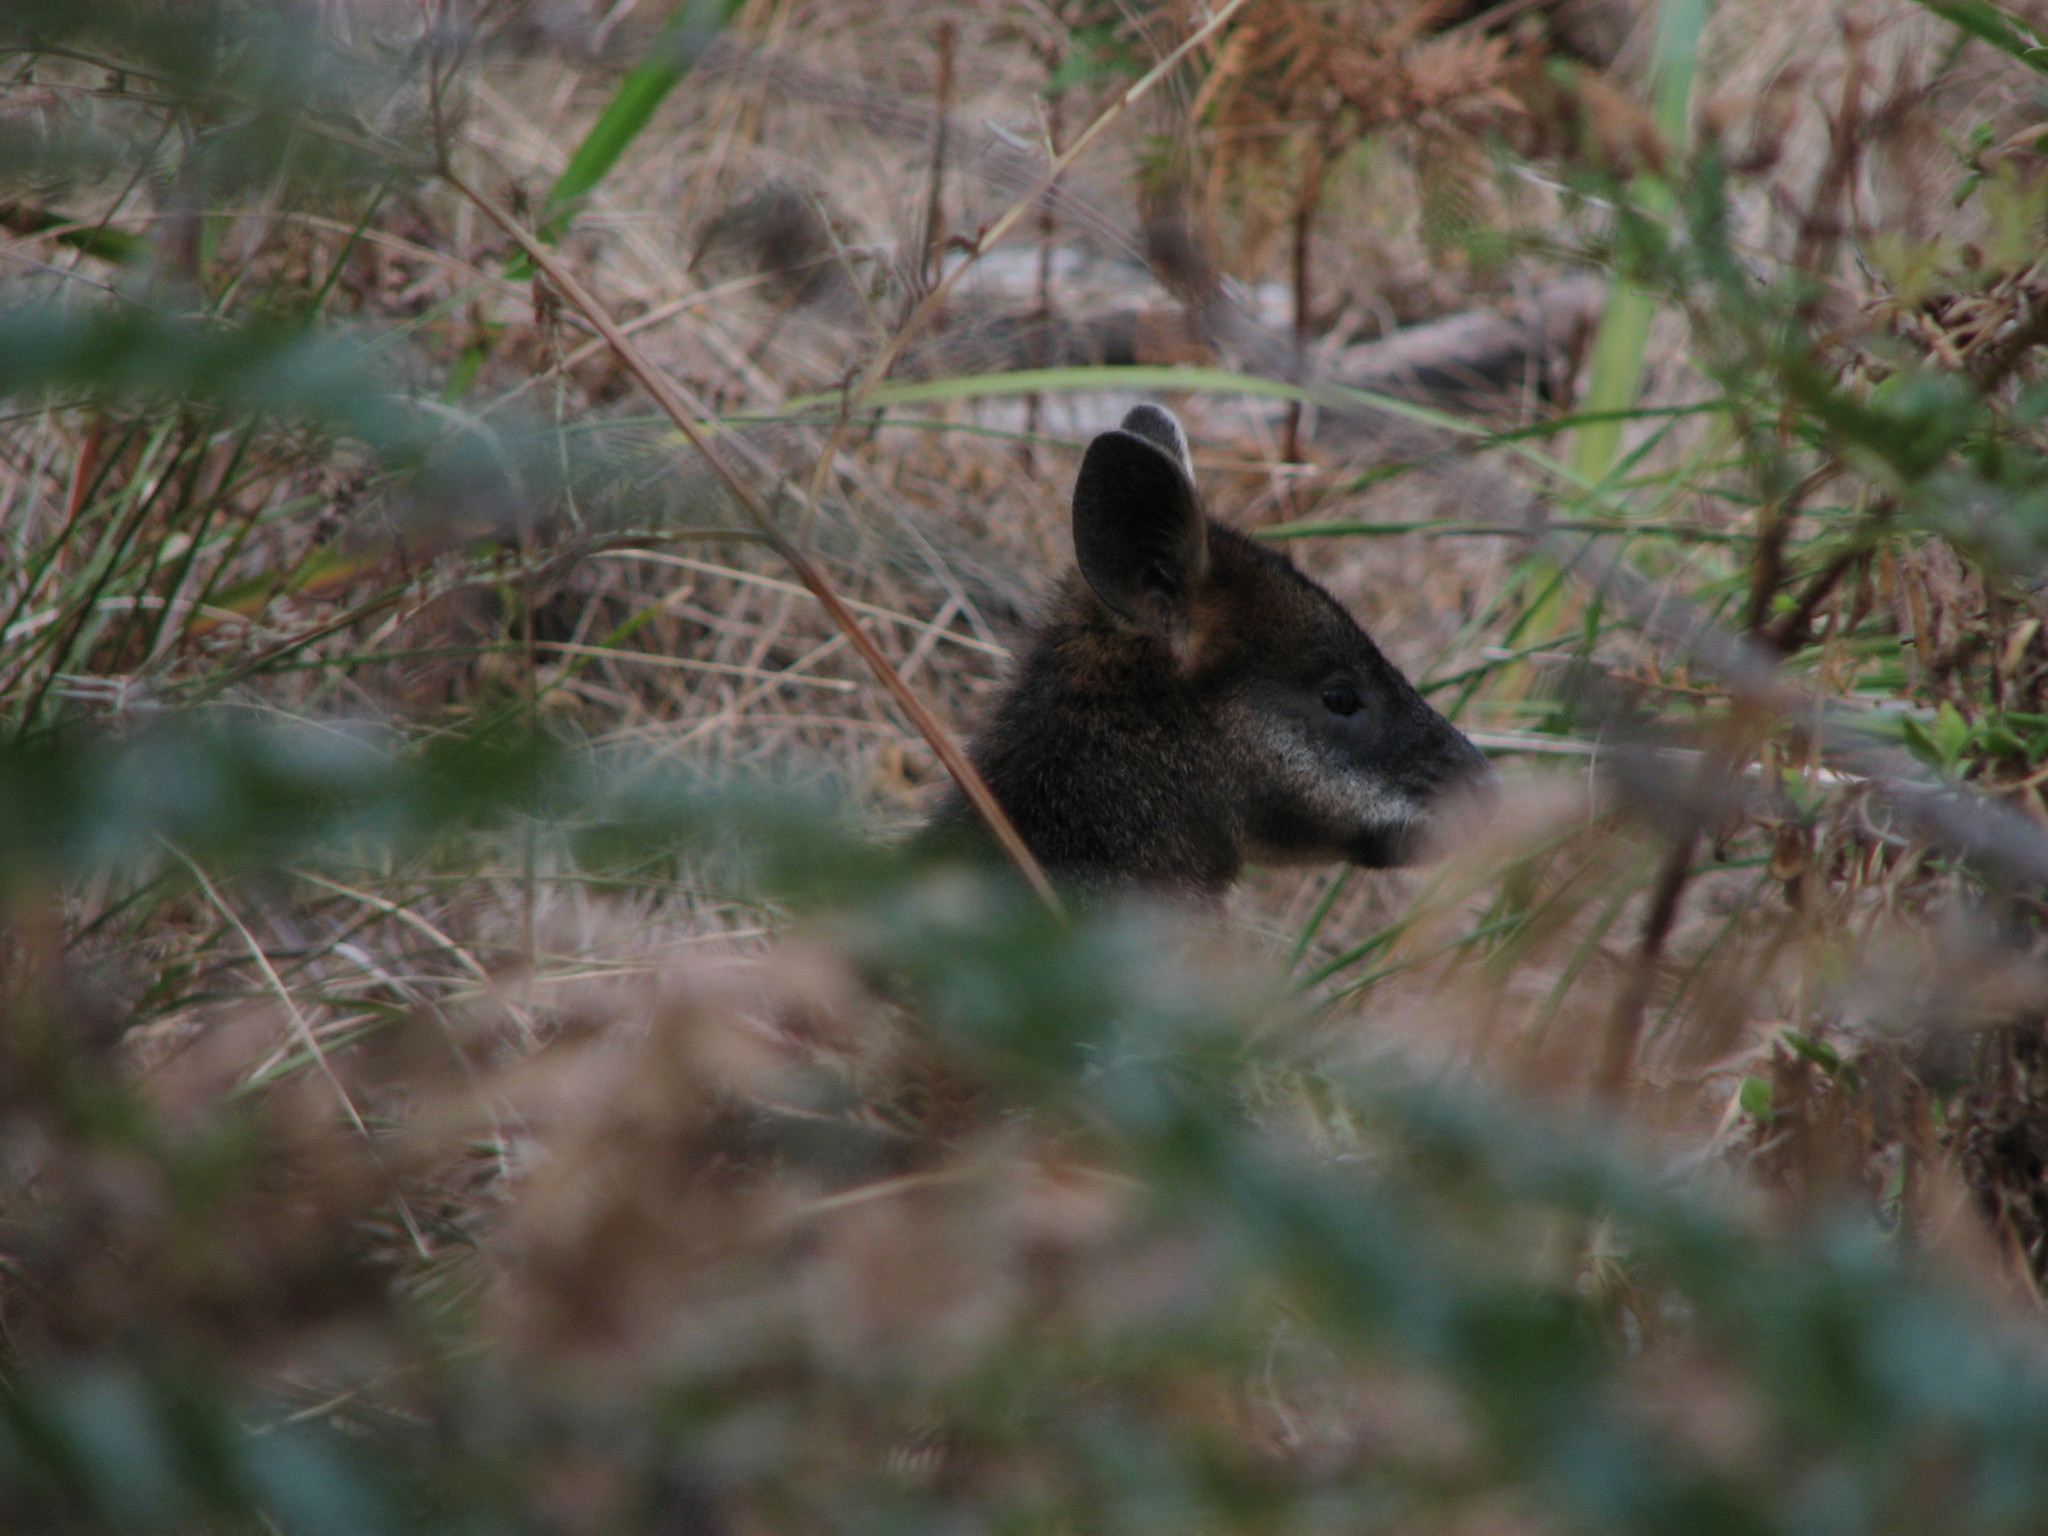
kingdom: Animalia
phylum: Chordata
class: Mammalia
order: Diprotodontia
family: Macropodidae
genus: Wallabia
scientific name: Wallabia bicolor
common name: Swamp wallaby
